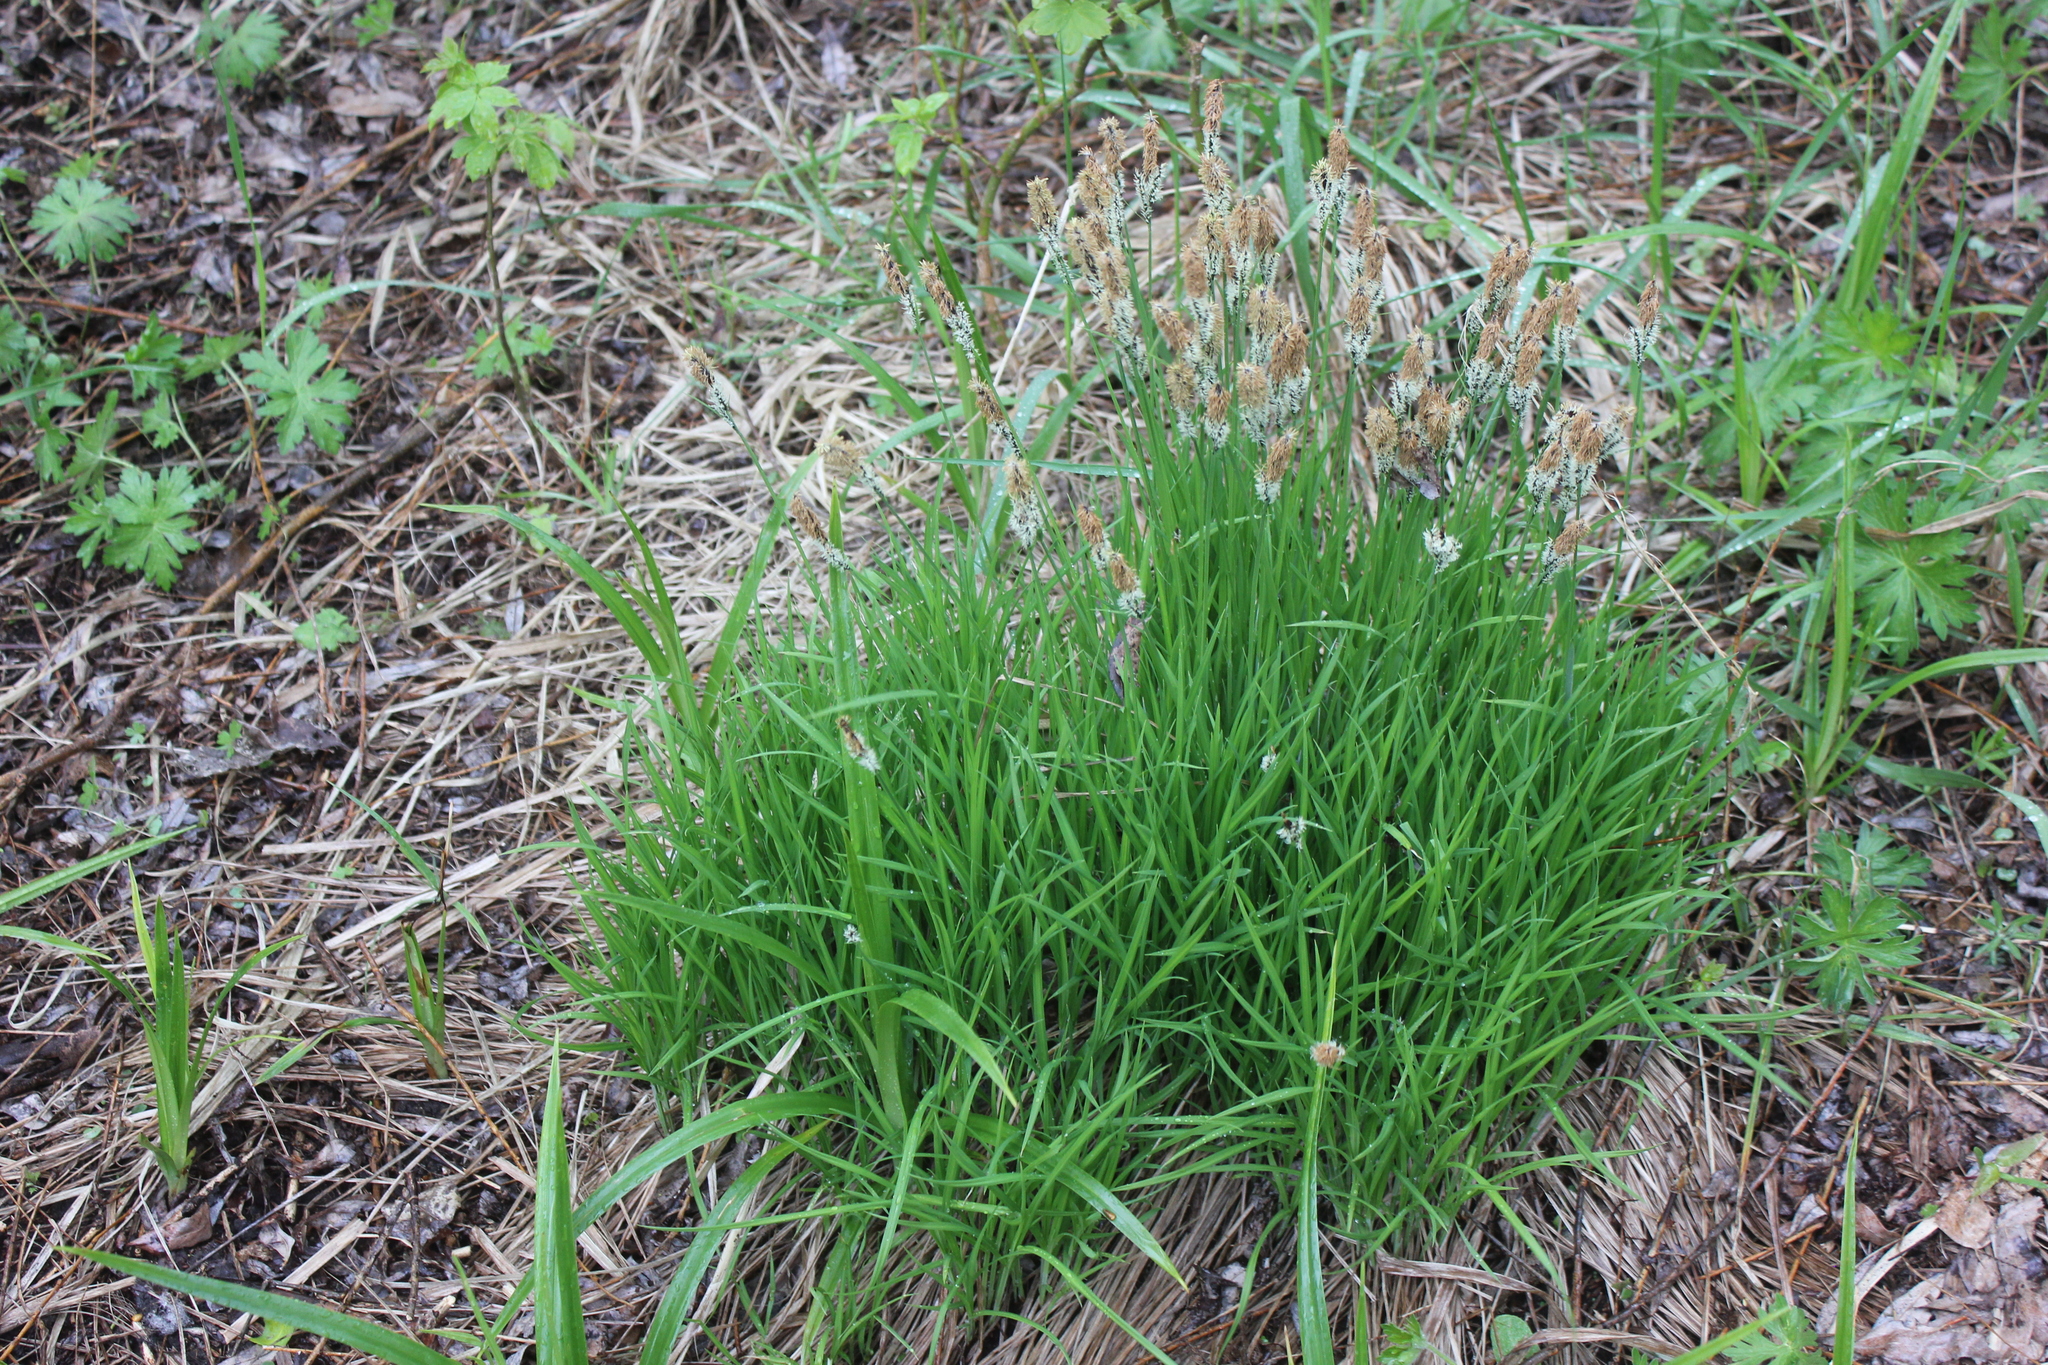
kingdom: Plantae
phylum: Tracheophyta
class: Liliopsida
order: Poales
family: Cyperaceae
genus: Carex
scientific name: Carex cespitosa
